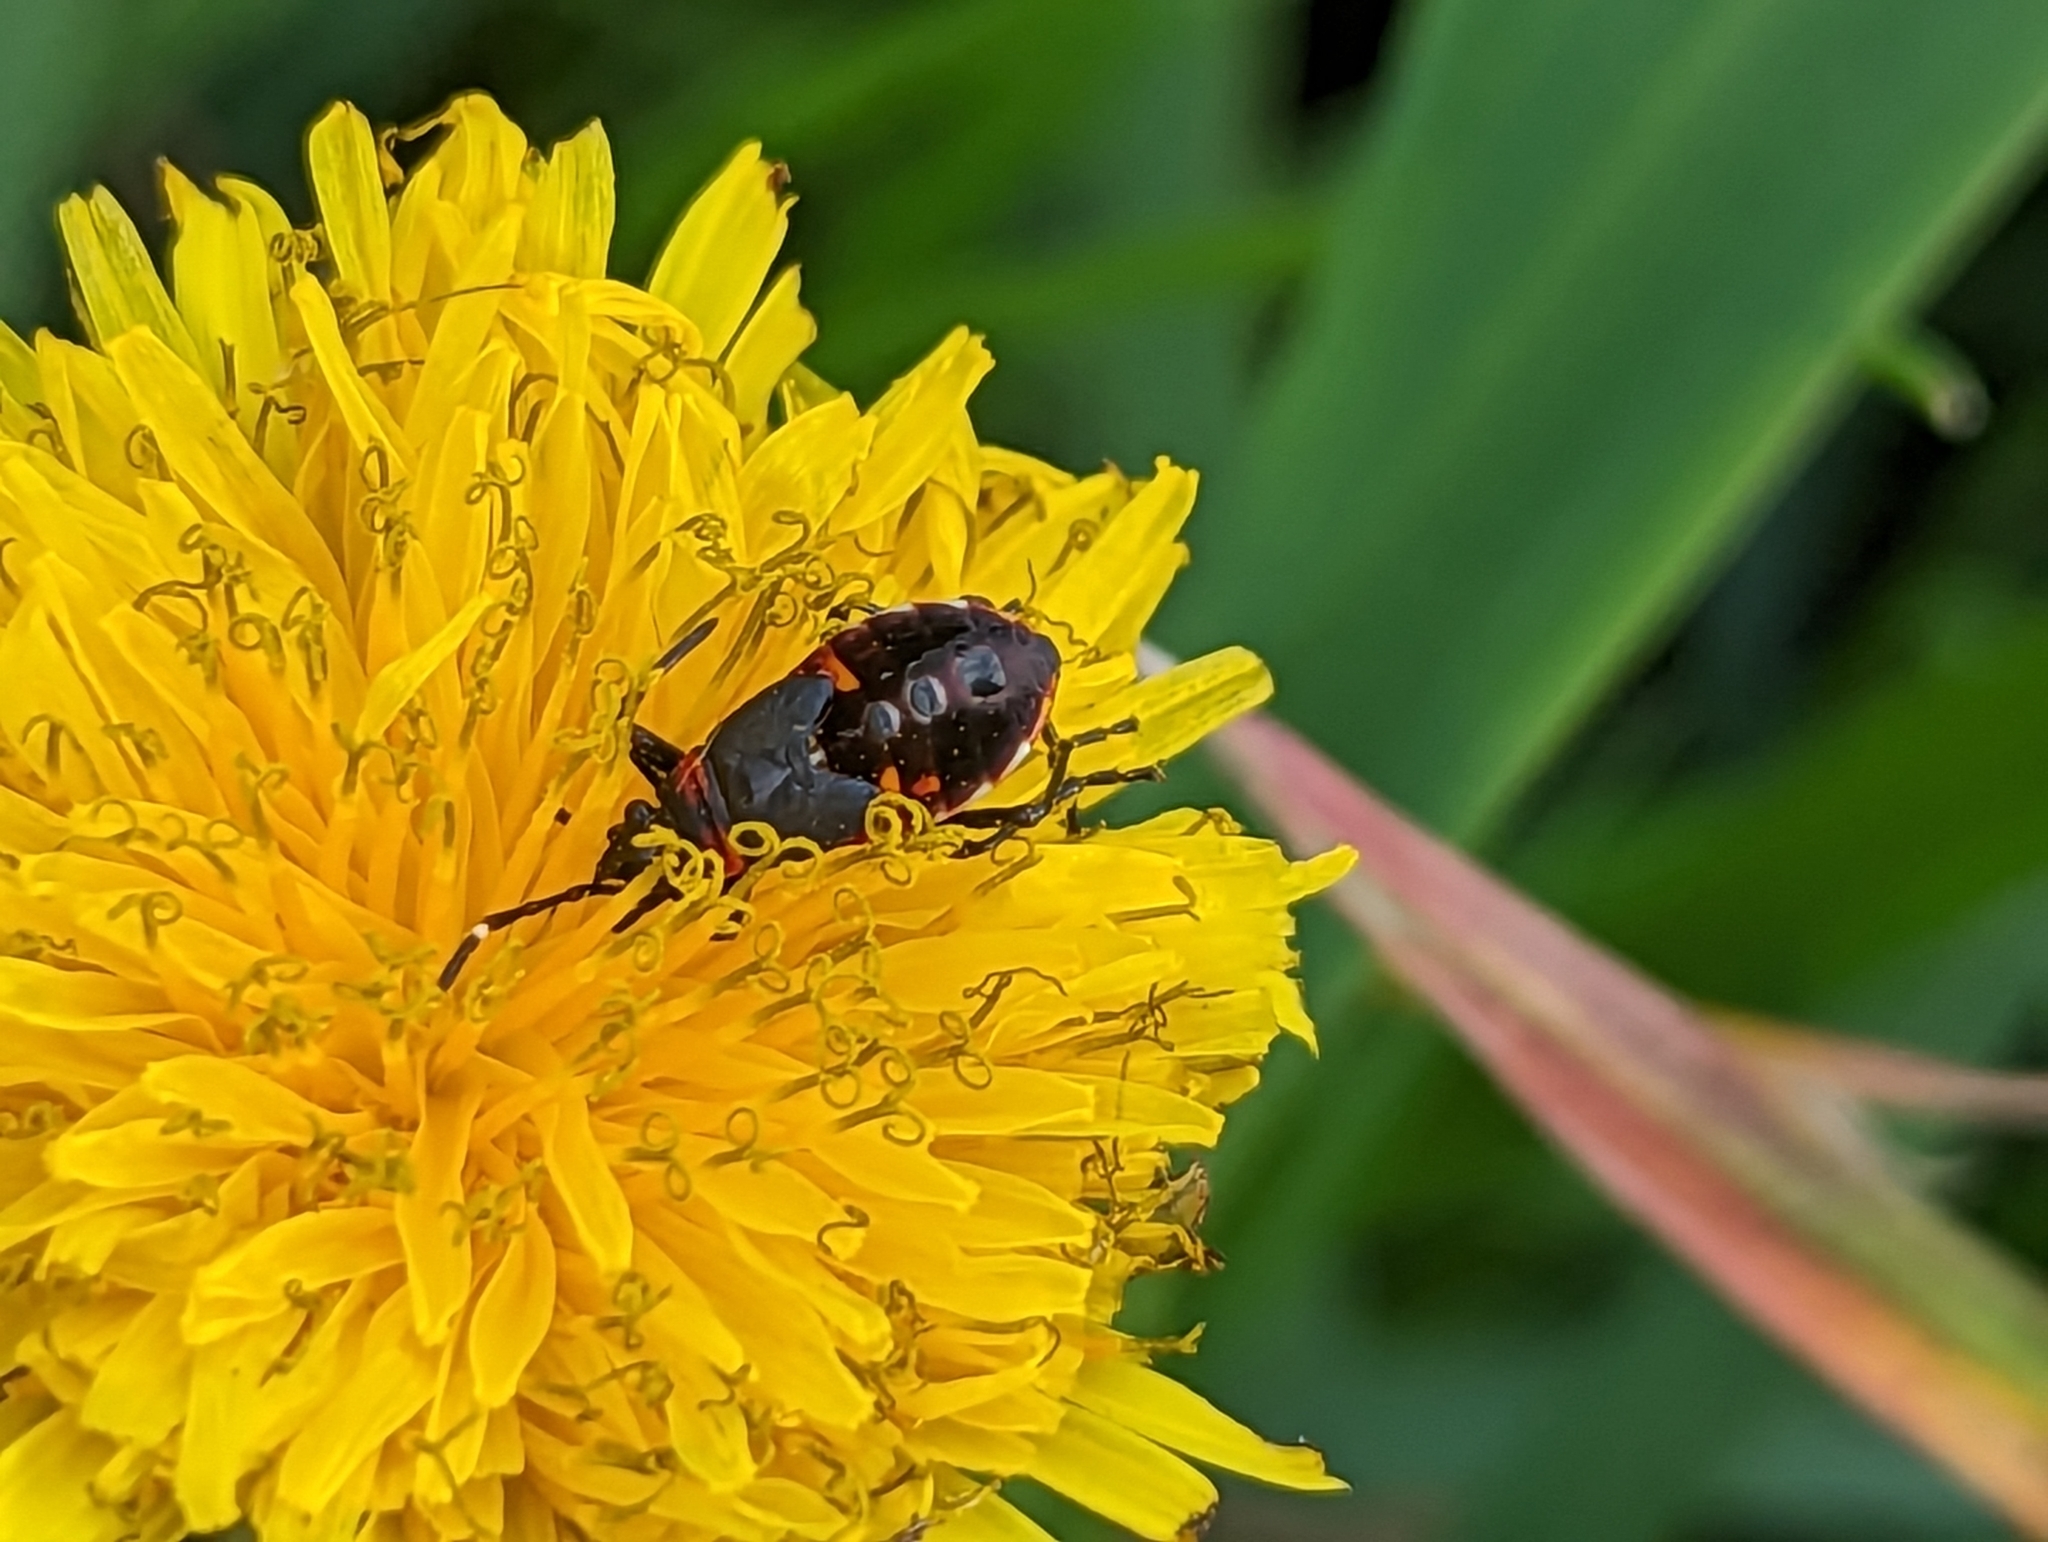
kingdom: Animalia
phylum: Arthropoda
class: Insecta
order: Hemiptera
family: Pyrrhocoridae
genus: Dindymus
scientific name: Dindymus
